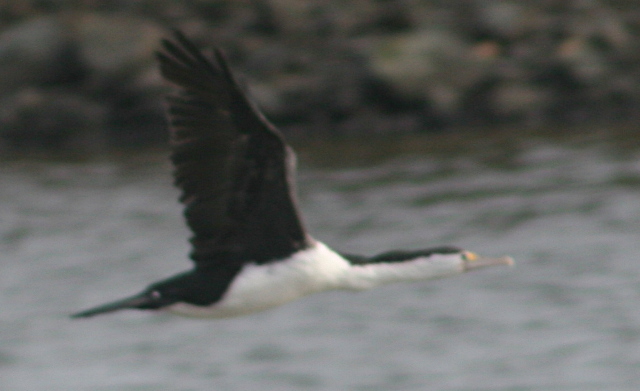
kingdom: Animalia
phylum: Chordata
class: Aves
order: Suliformes
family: Phalacrocoracidae
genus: Phalacrocorax
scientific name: Phalacrocorax varius
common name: Pied cormorant
